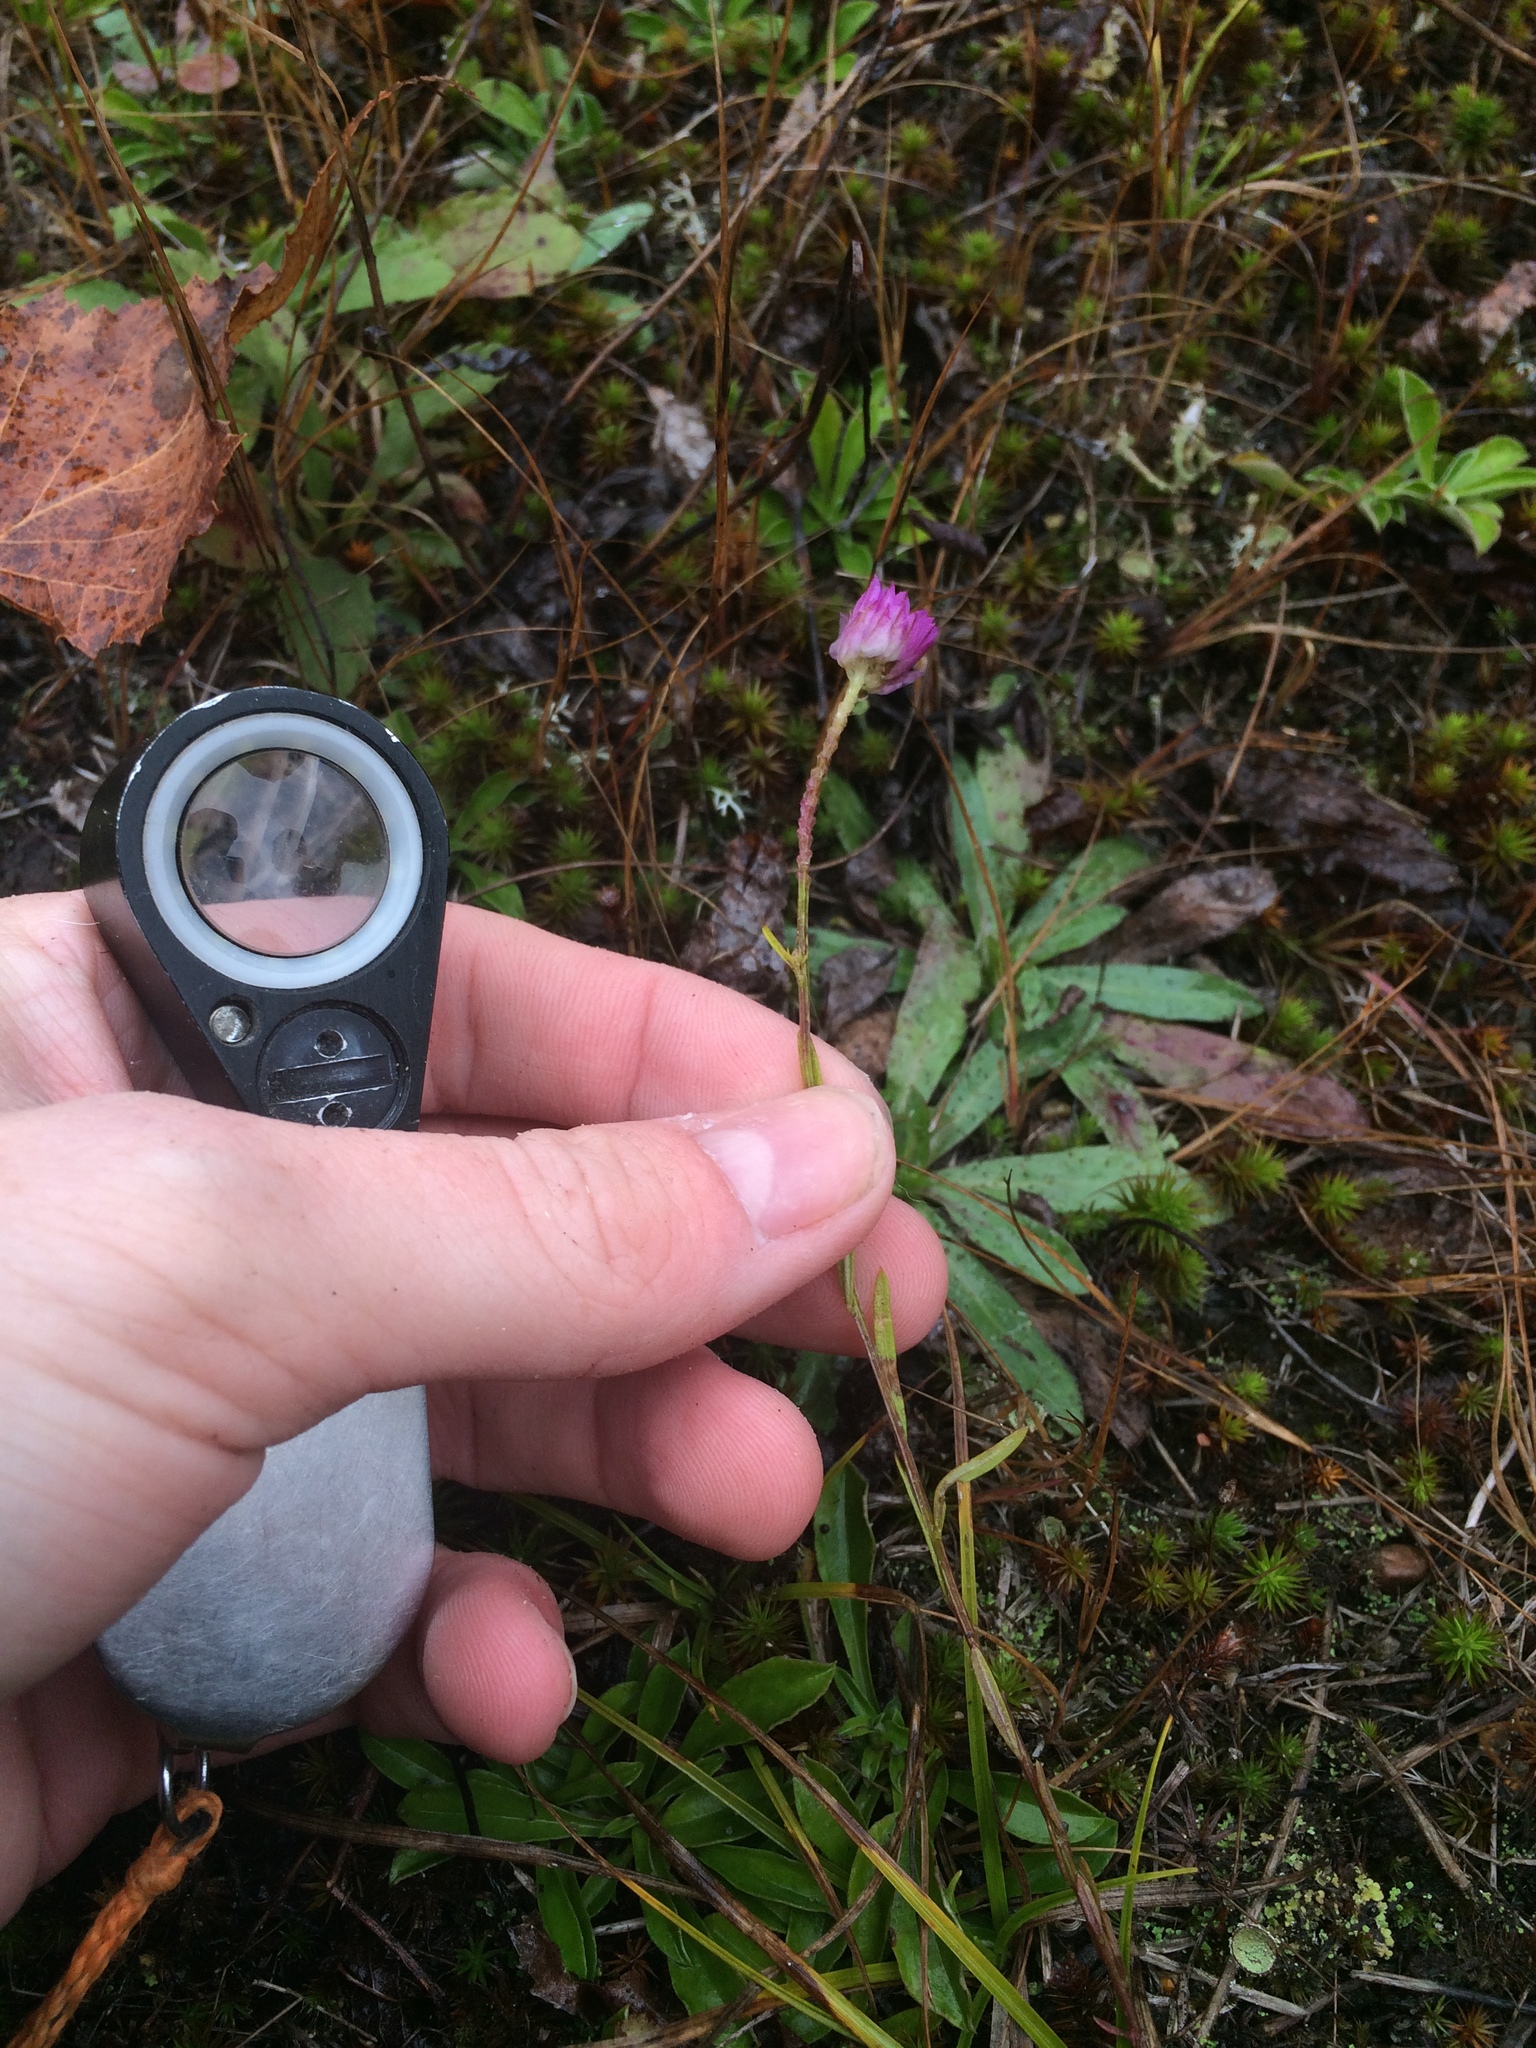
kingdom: Plantae
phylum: Tracheophyta
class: Magnoliopsida
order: Fabales
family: Polygalaceae
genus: Polygala
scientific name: Polygala sanguinea
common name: Blood milkwort
